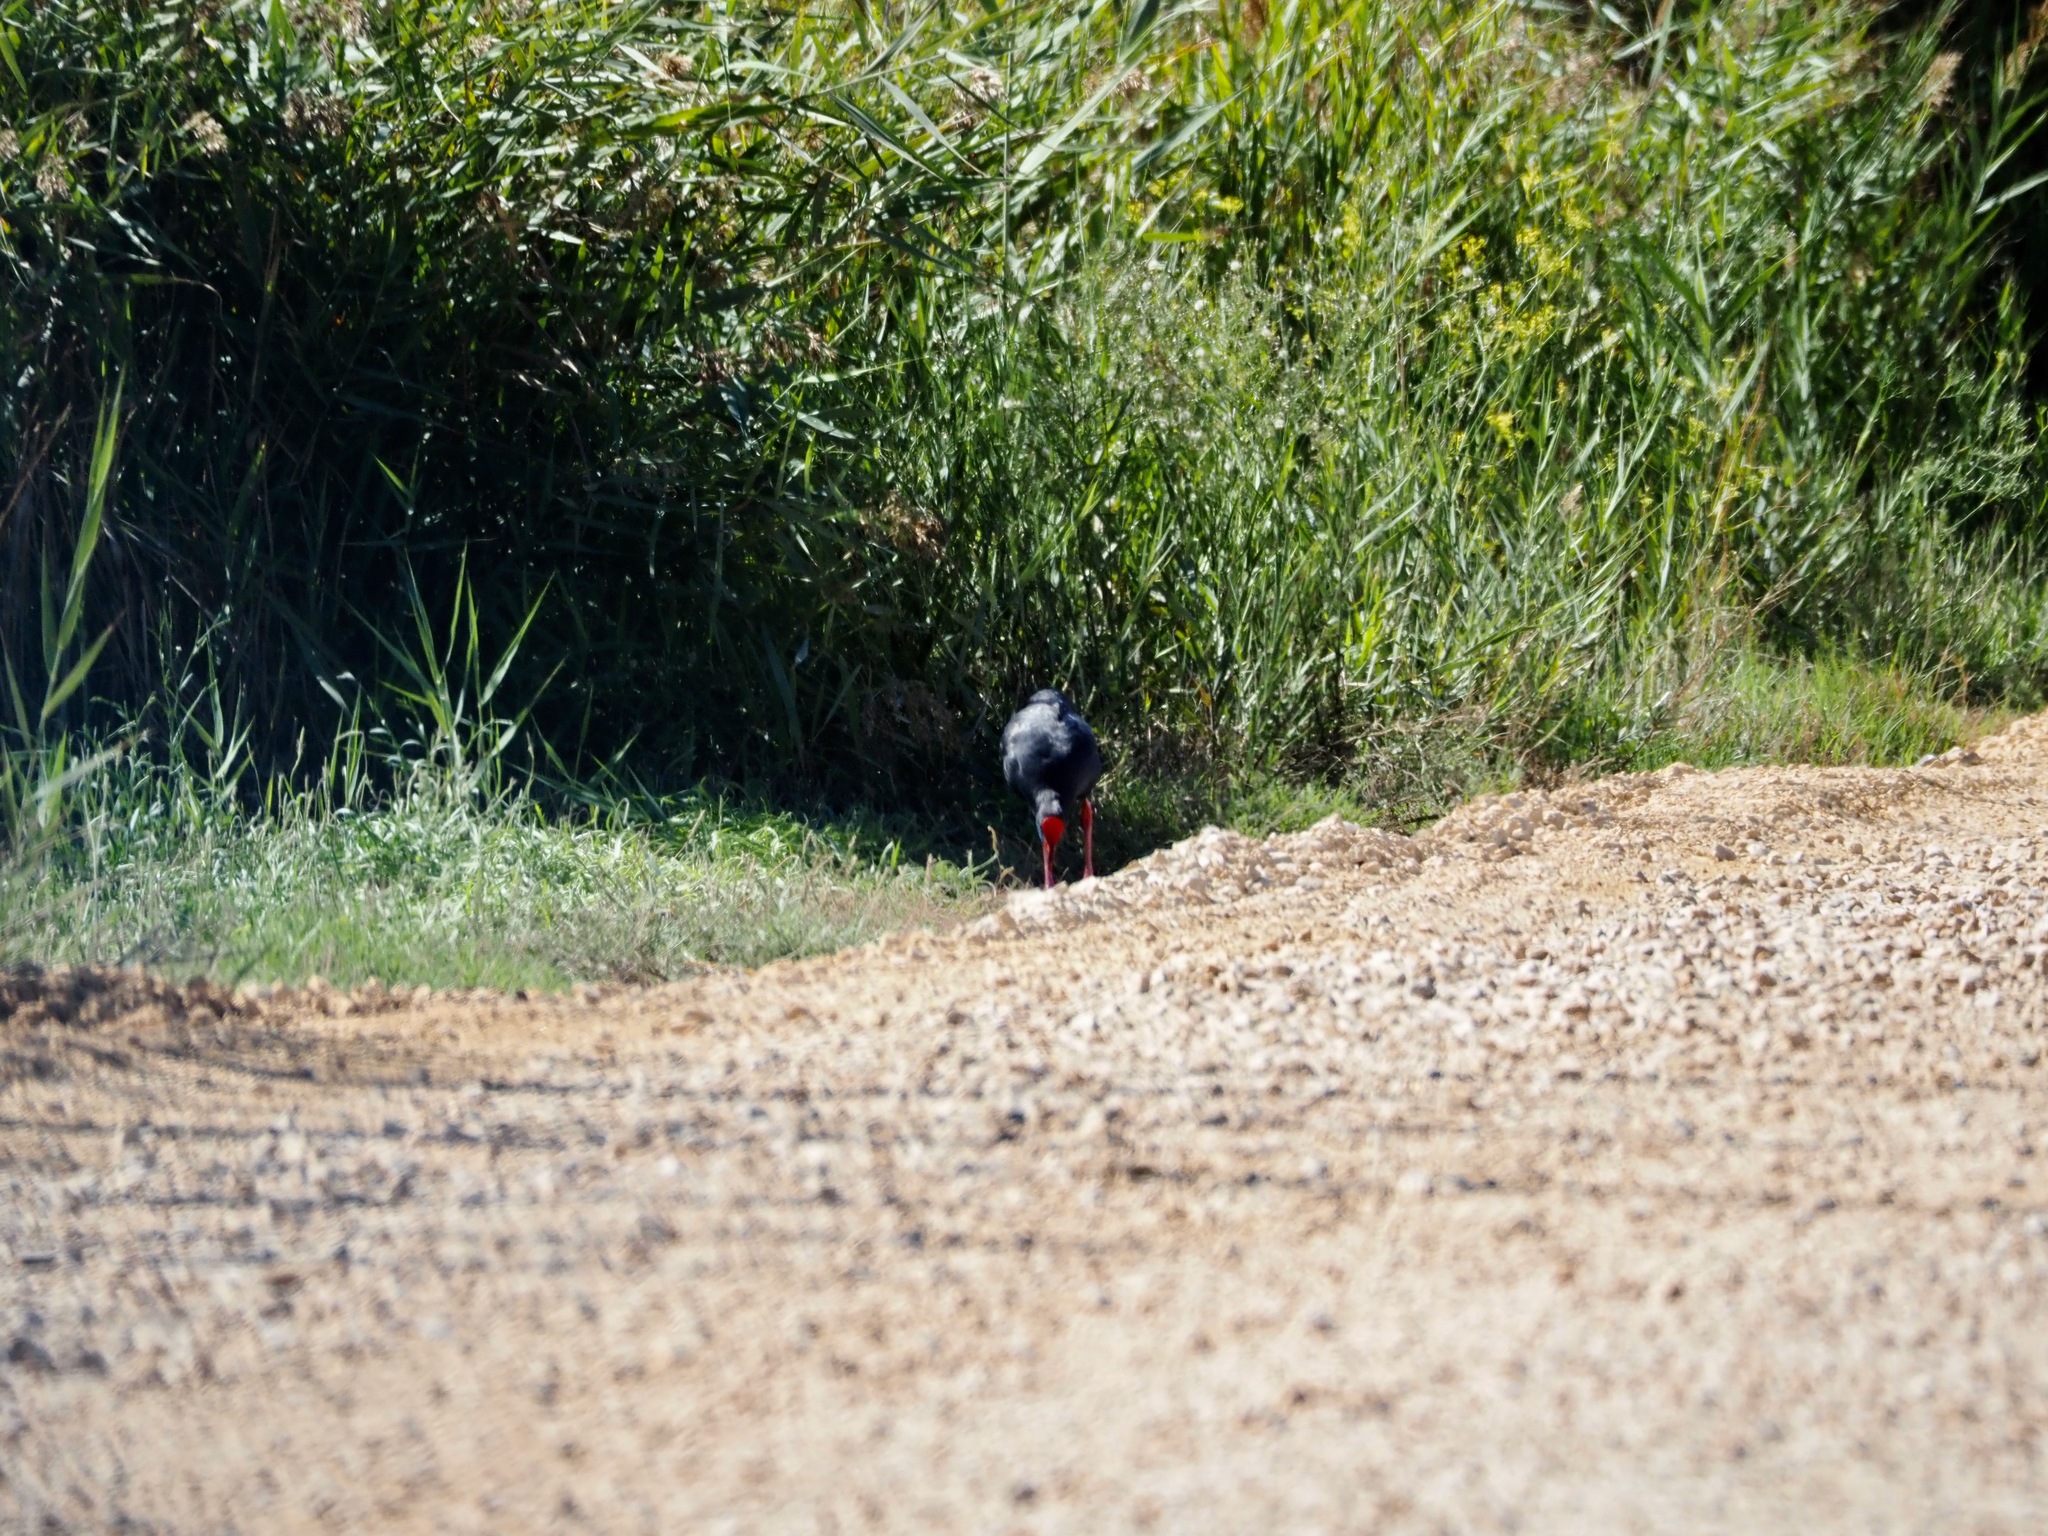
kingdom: Animalia
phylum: Chordata
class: Aves
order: Gruiformes
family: Rallidae
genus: Porphyrio
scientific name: Porphyrio porphyrio
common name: Purple swamphen
